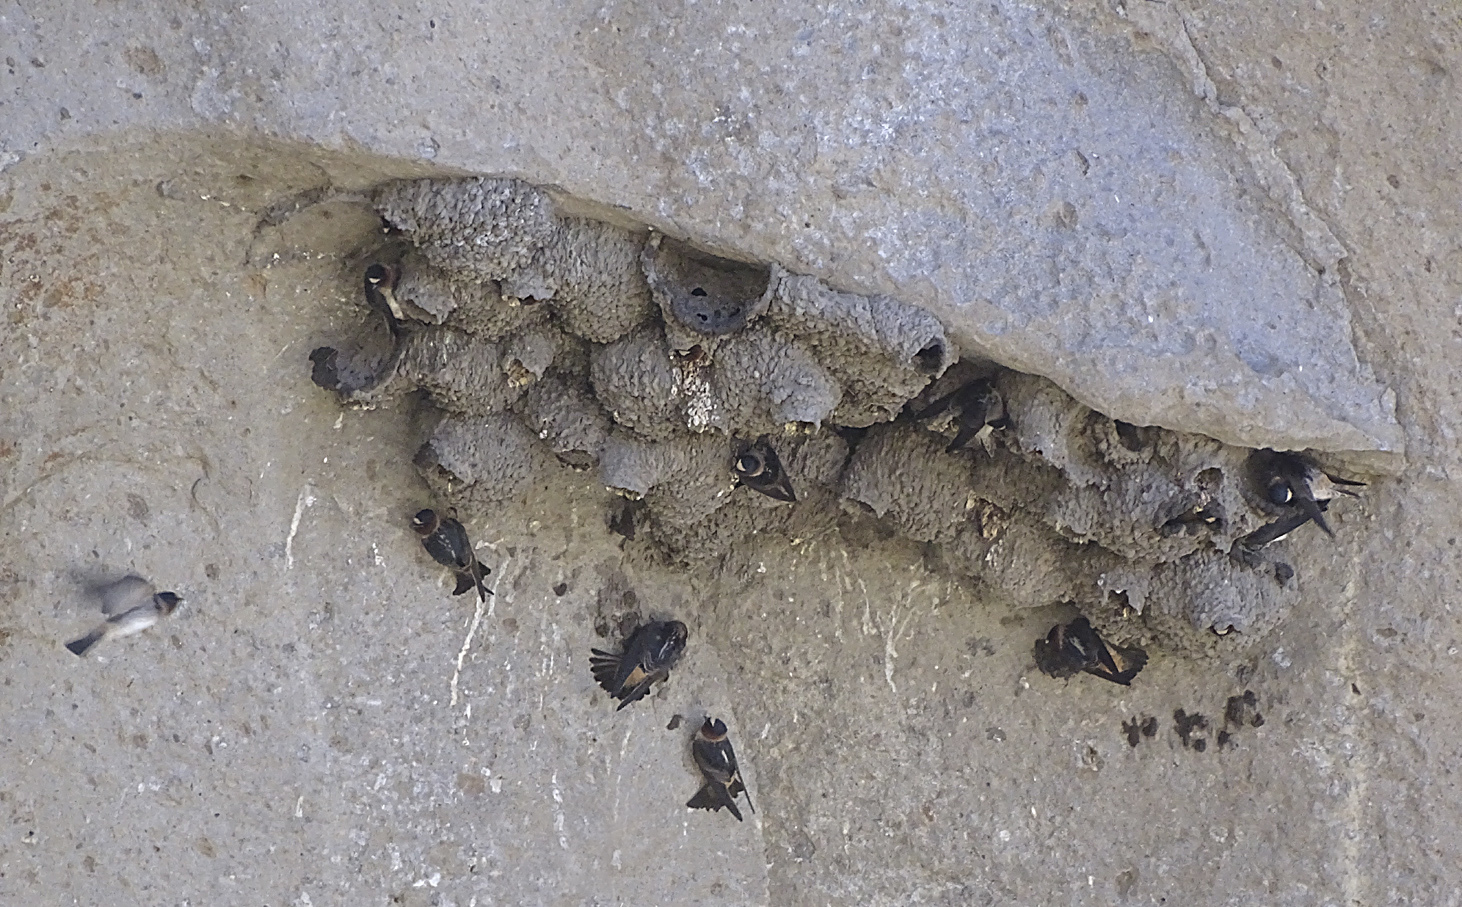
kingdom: Animalia
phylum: Chordata
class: Aves
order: Passeriformes
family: Hirundinidae
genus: Petrochelidon
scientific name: Petrochelidon pyrrhonota
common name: American cliff swallow
